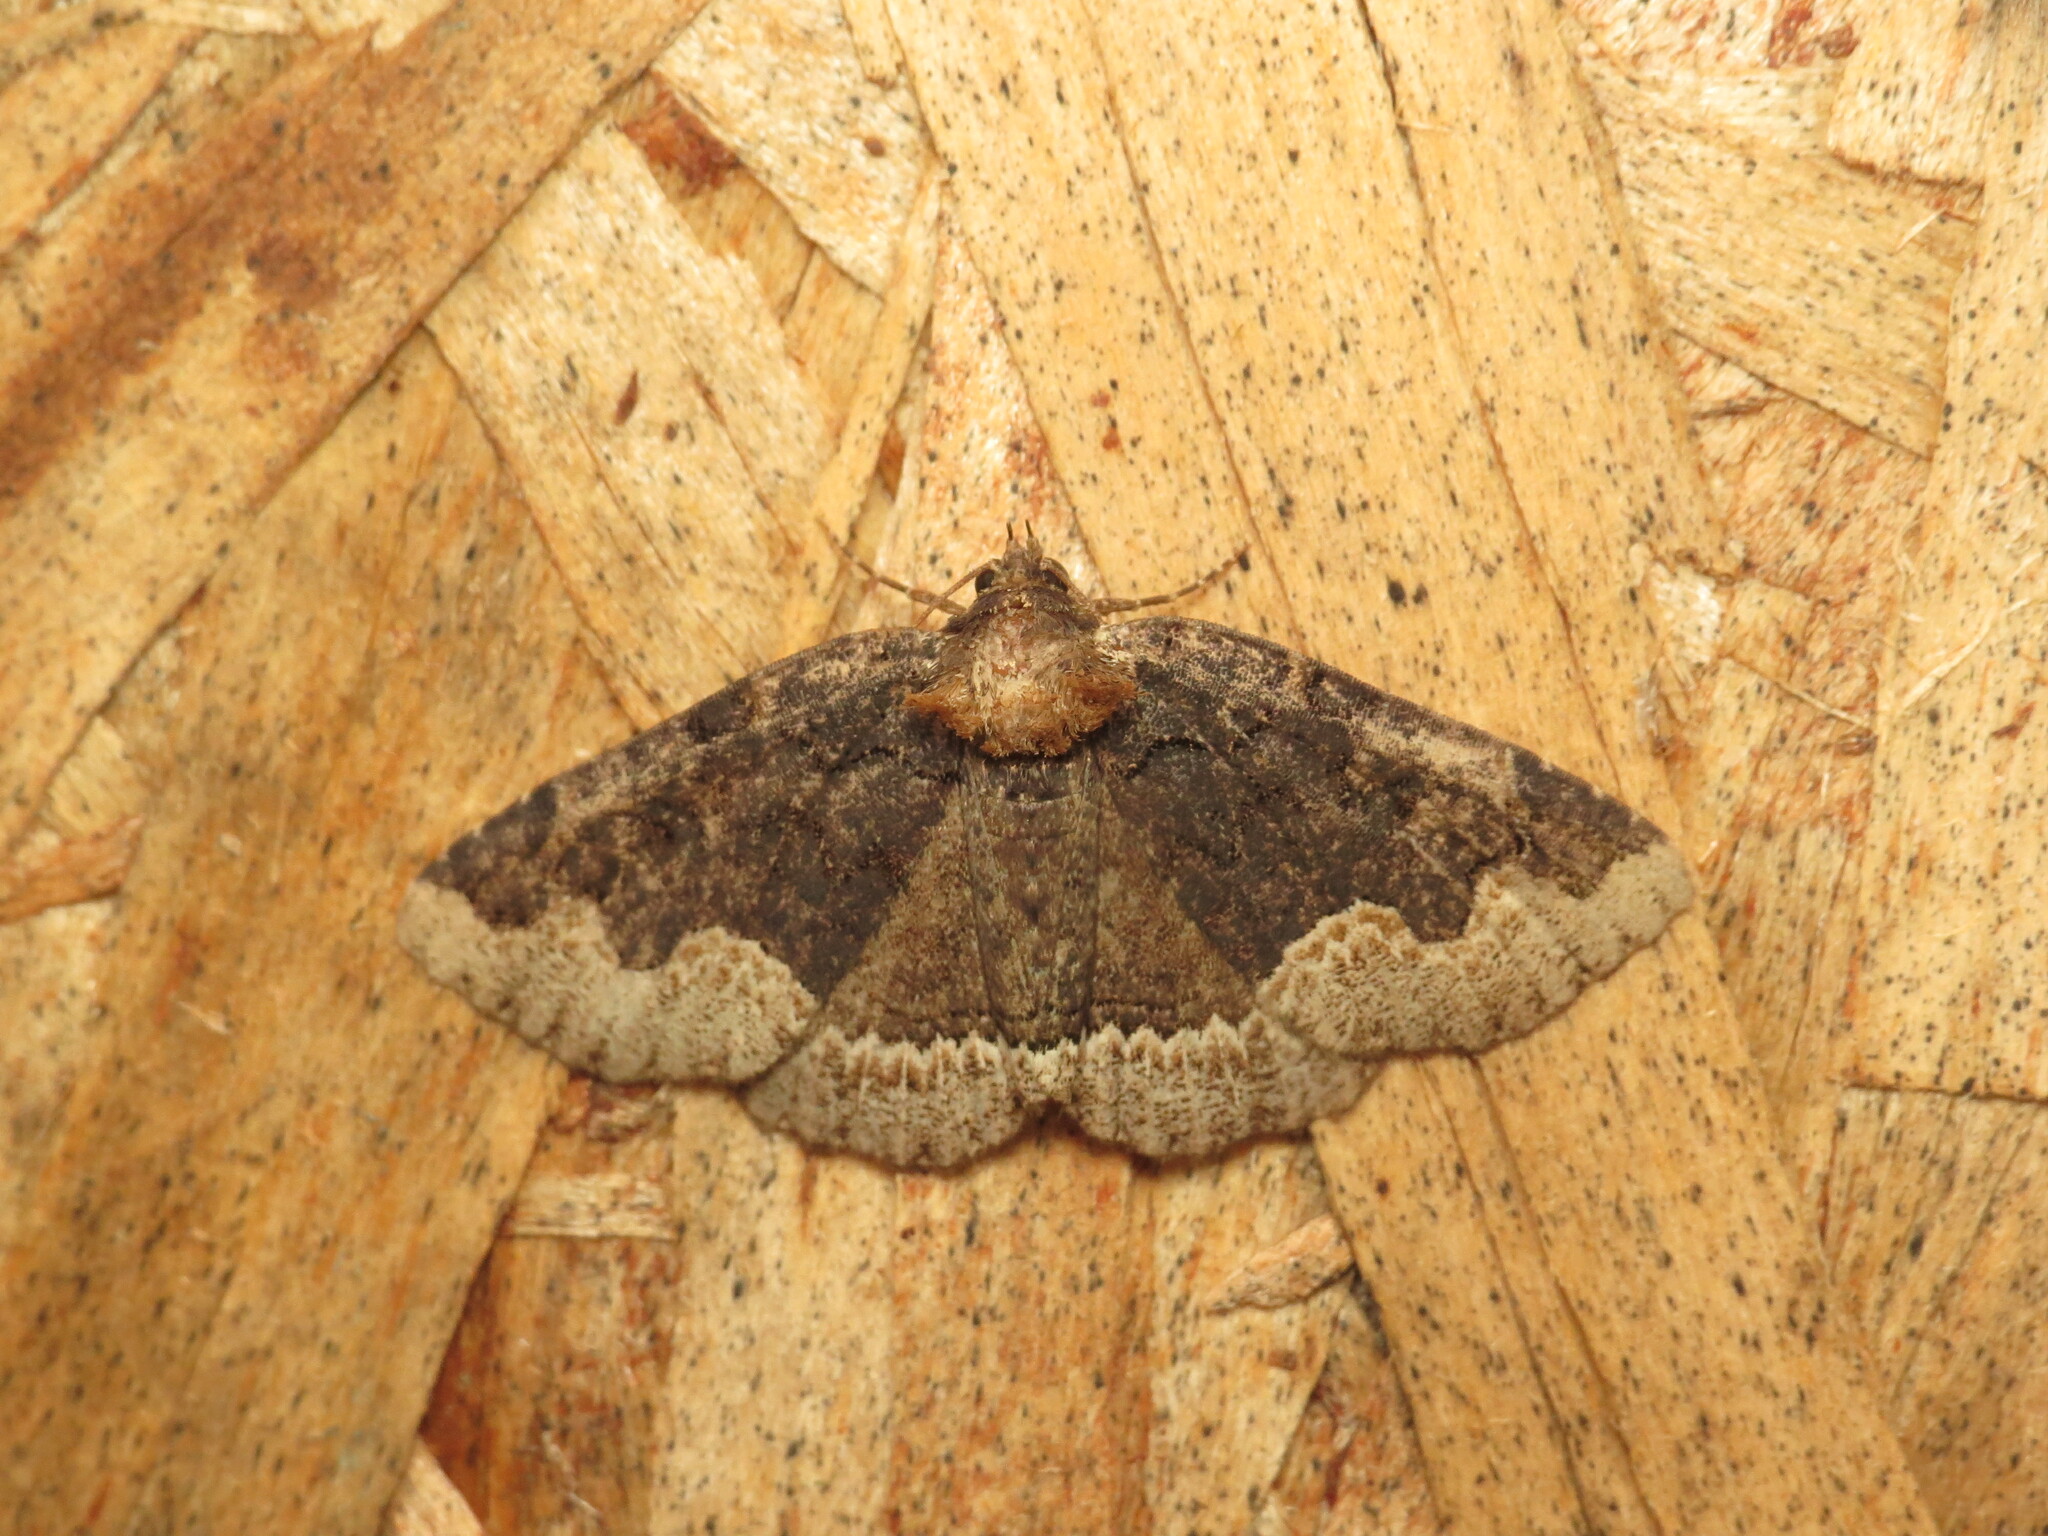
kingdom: Animalia
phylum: Arthropoda
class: Insecta
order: Lepidoptera
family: Erebidae
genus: Zale
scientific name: Zale horrida
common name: Horrid zale moth
